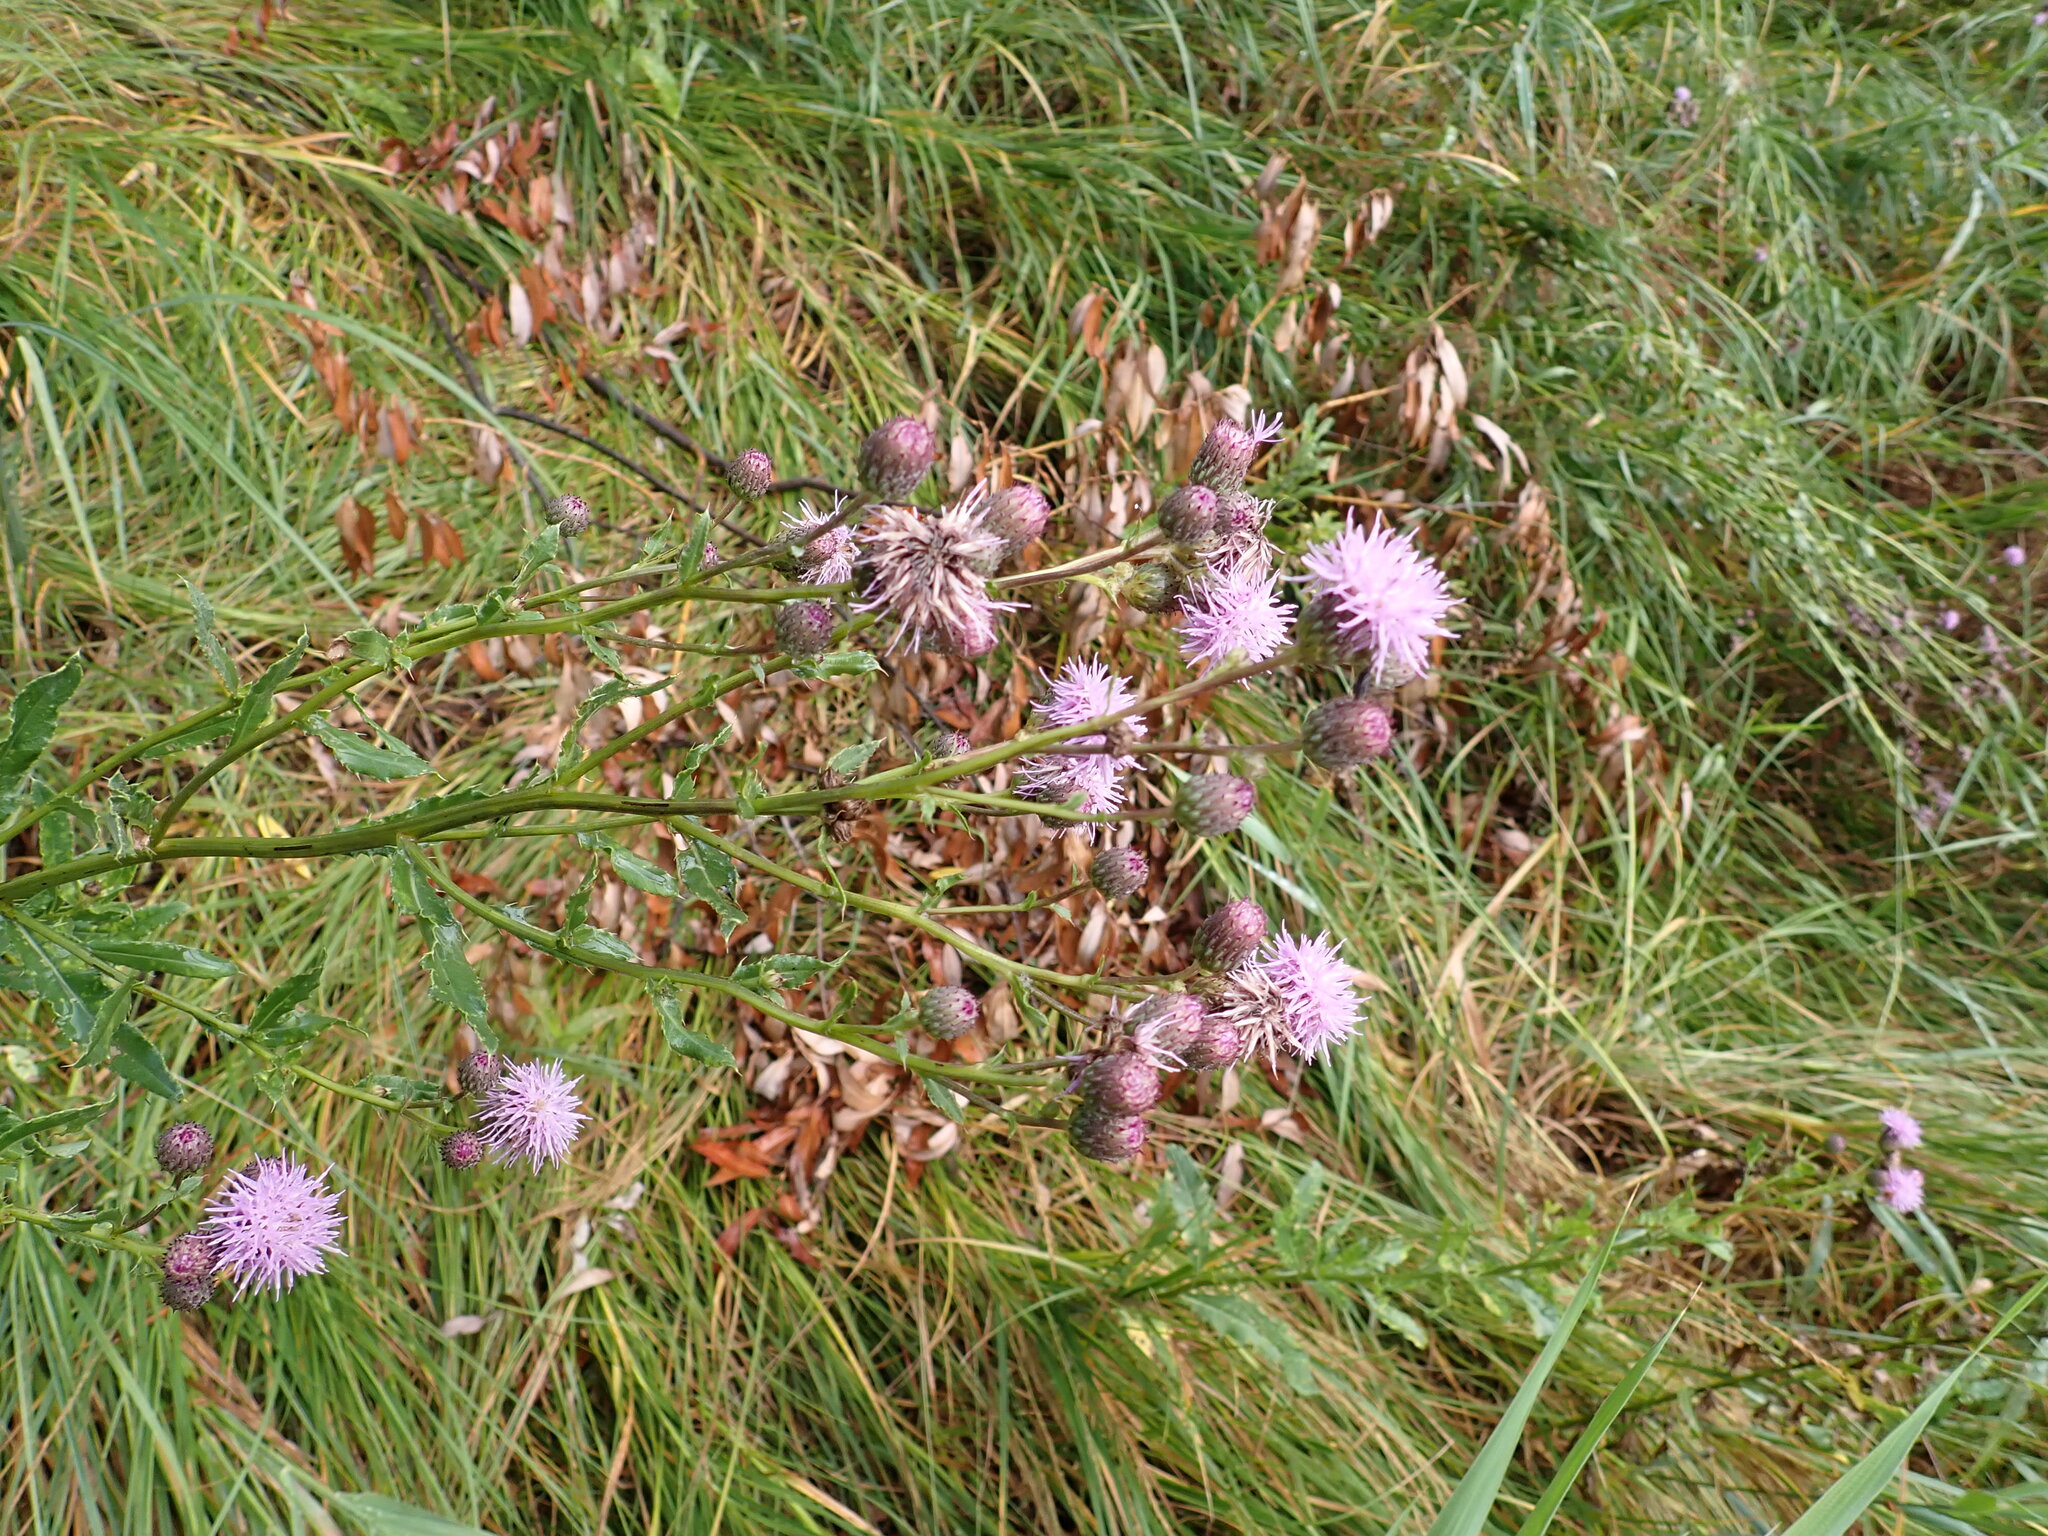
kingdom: Plantae
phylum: Tracheophyta
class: Magnoliopsida
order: Asterales
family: Asteraceae
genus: Cirsium
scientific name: Cirsium arvense
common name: Creeping thistle
